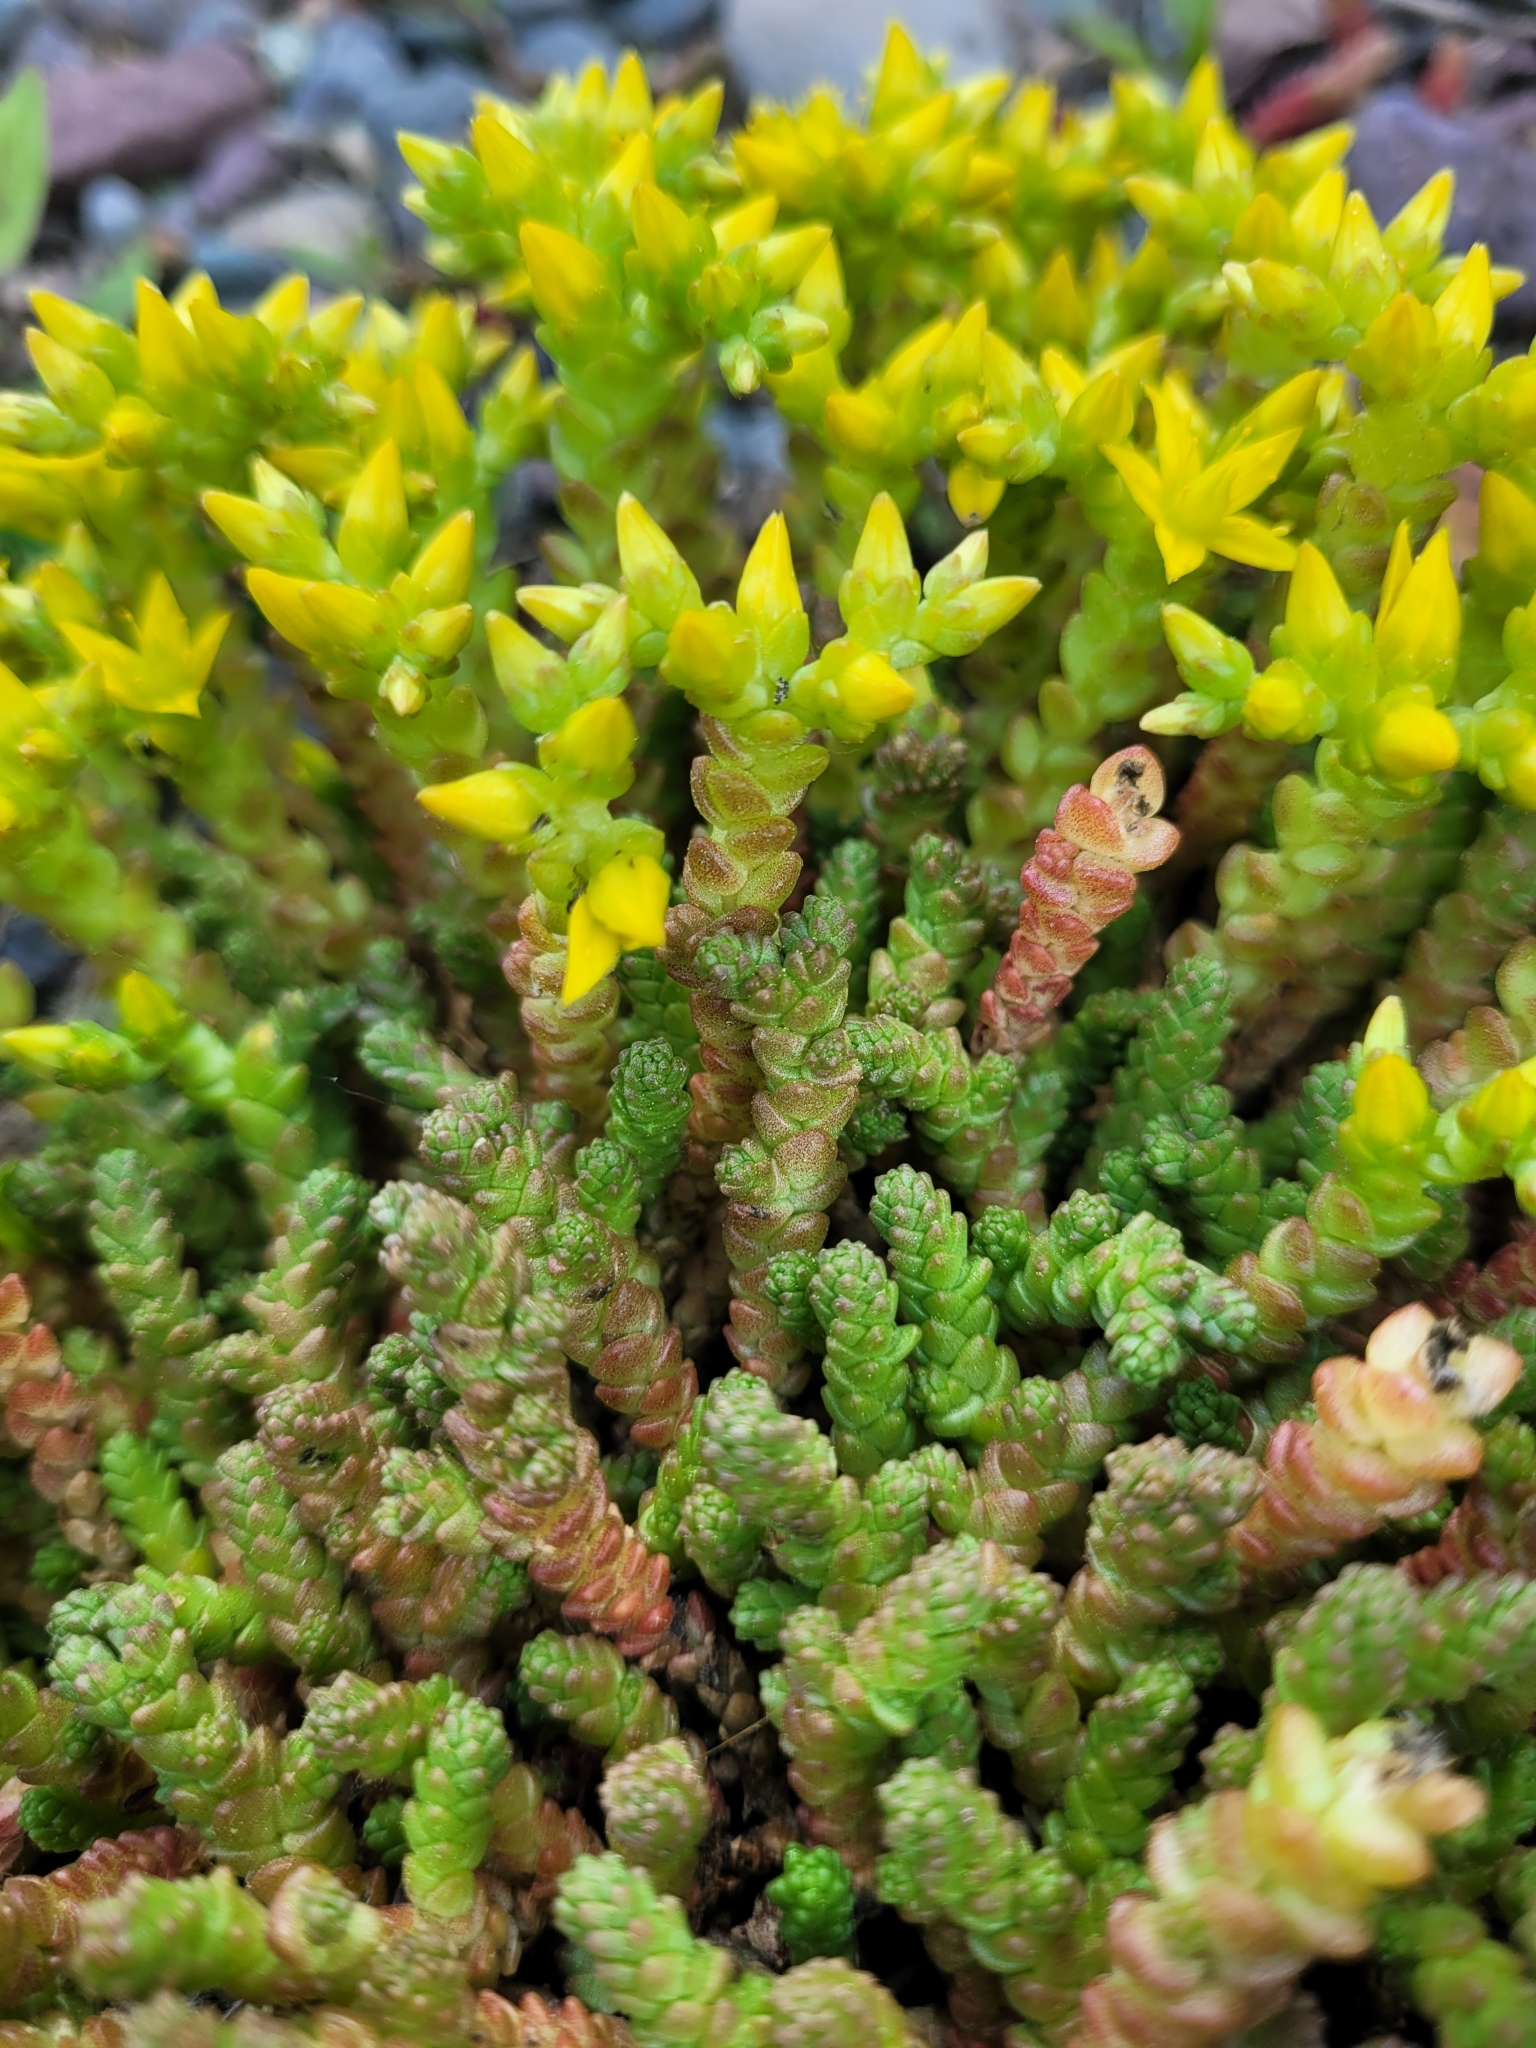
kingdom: Plantae
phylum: Tracheophyta
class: Magnoliopsida
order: Saxifragales
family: Crassulaceae
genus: Sedum
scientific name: Sedum acre
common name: Biting stonecrop
